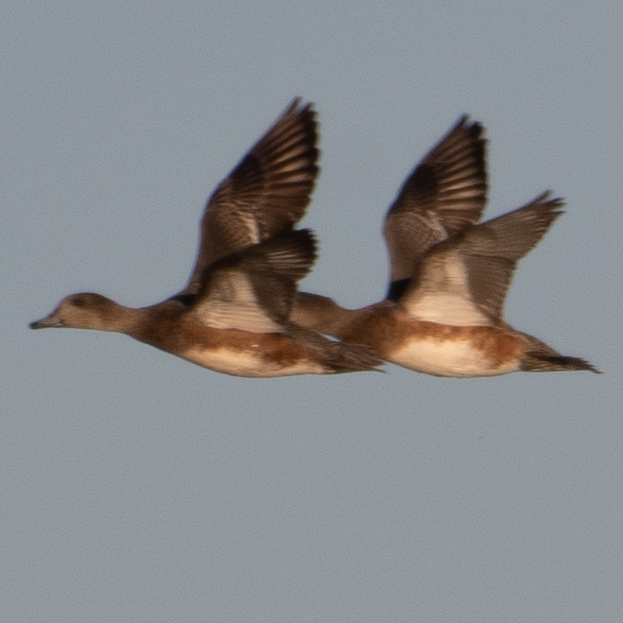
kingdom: Animalia
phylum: Chordata
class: Aves
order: Anseriformes
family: Anatidae
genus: Mareca
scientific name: Mareca americana
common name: American wigeon
